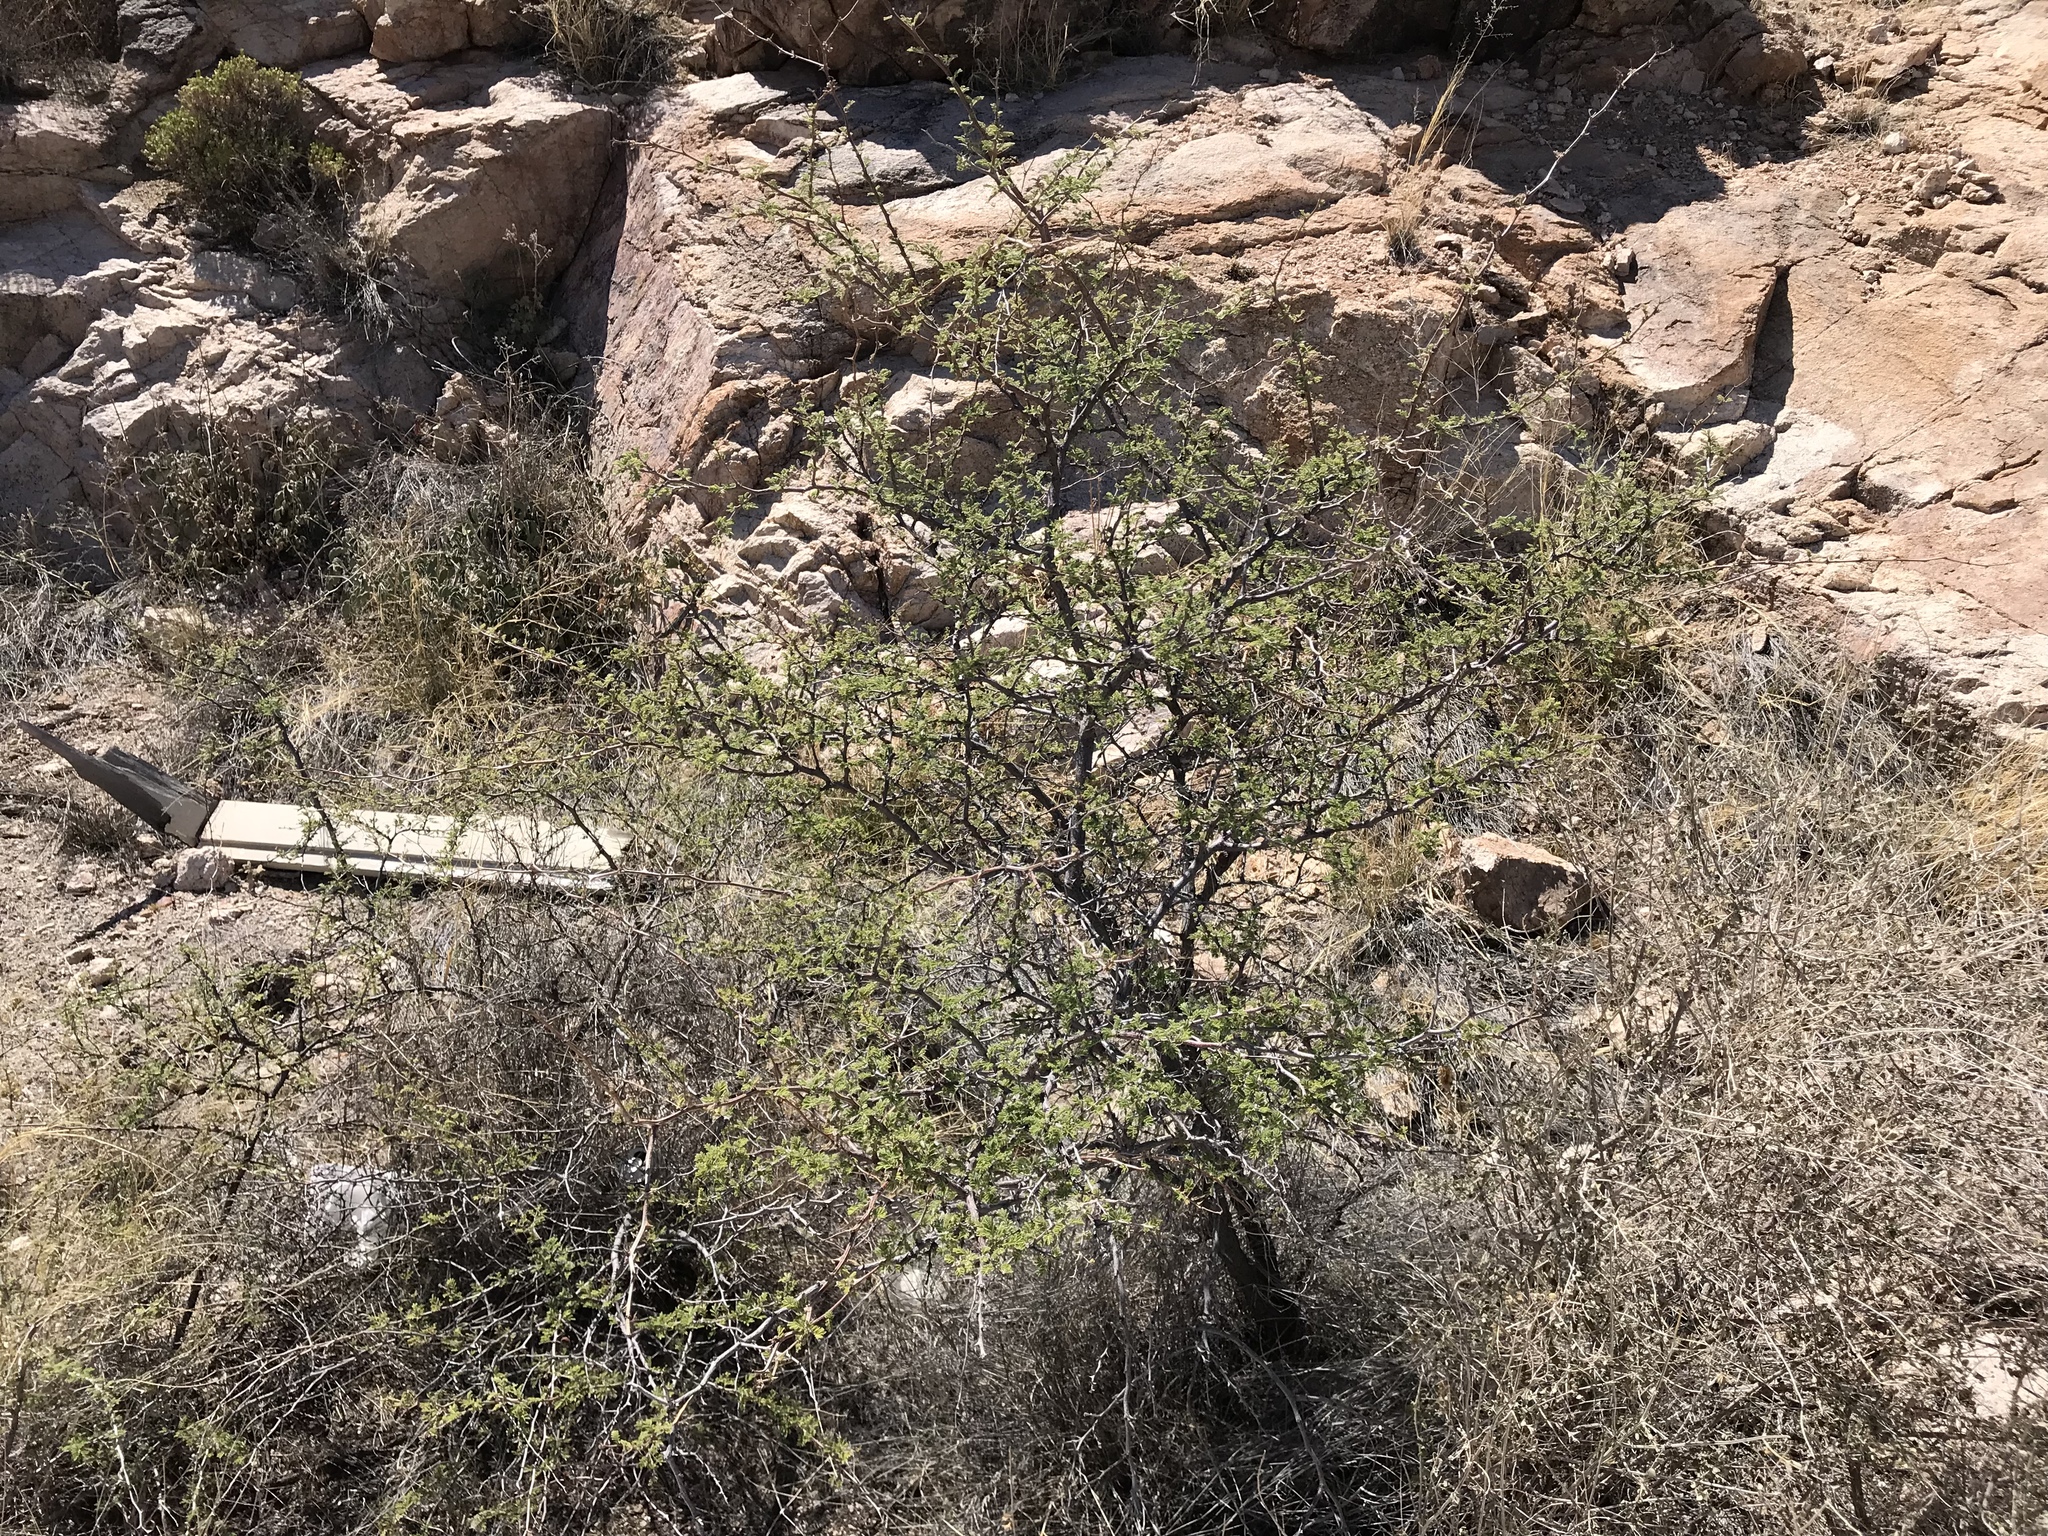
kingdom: Plantae
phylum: Tracheophyta
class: Magnoliopsida
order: Fabales
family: Fabaceae
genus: Senegalia
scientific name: Senegalia greggii
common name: Texas-mimosa
